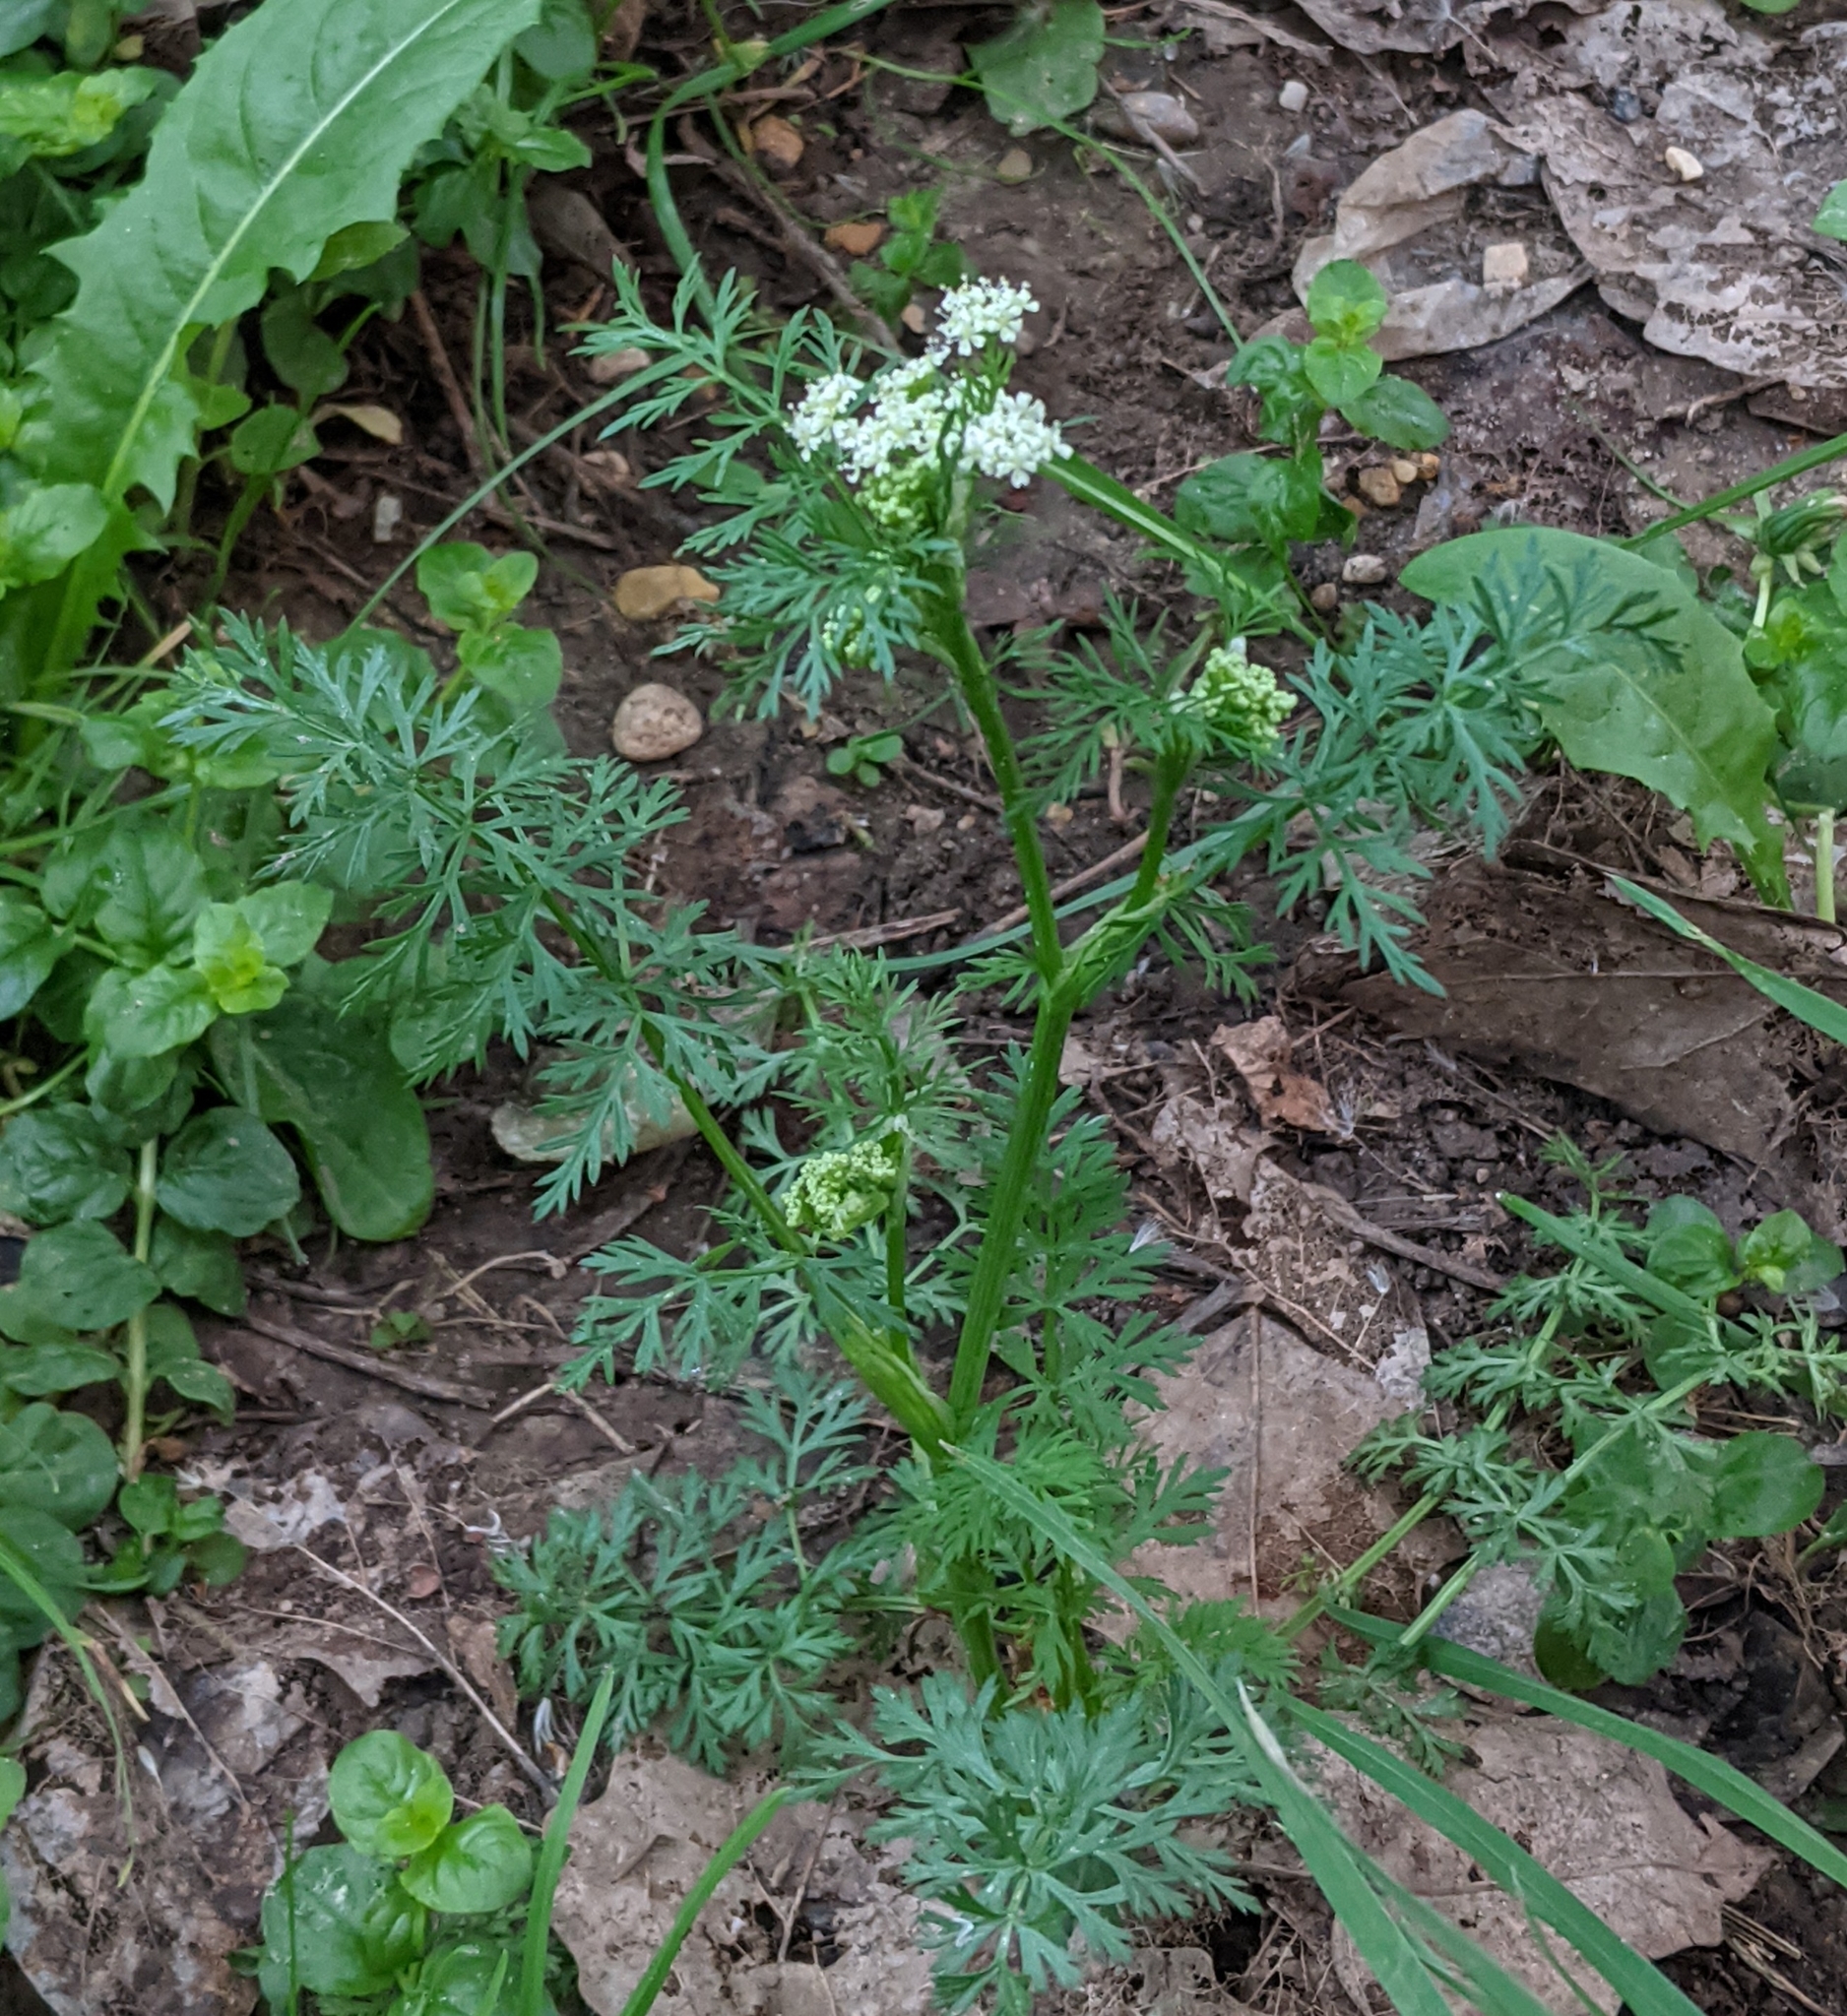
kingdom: Plantae
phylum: Tracheophyta
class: Magnoliopsida
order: Apiales
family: Apiaceae
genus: Carum
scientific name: Carum carvi
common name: Caraway
